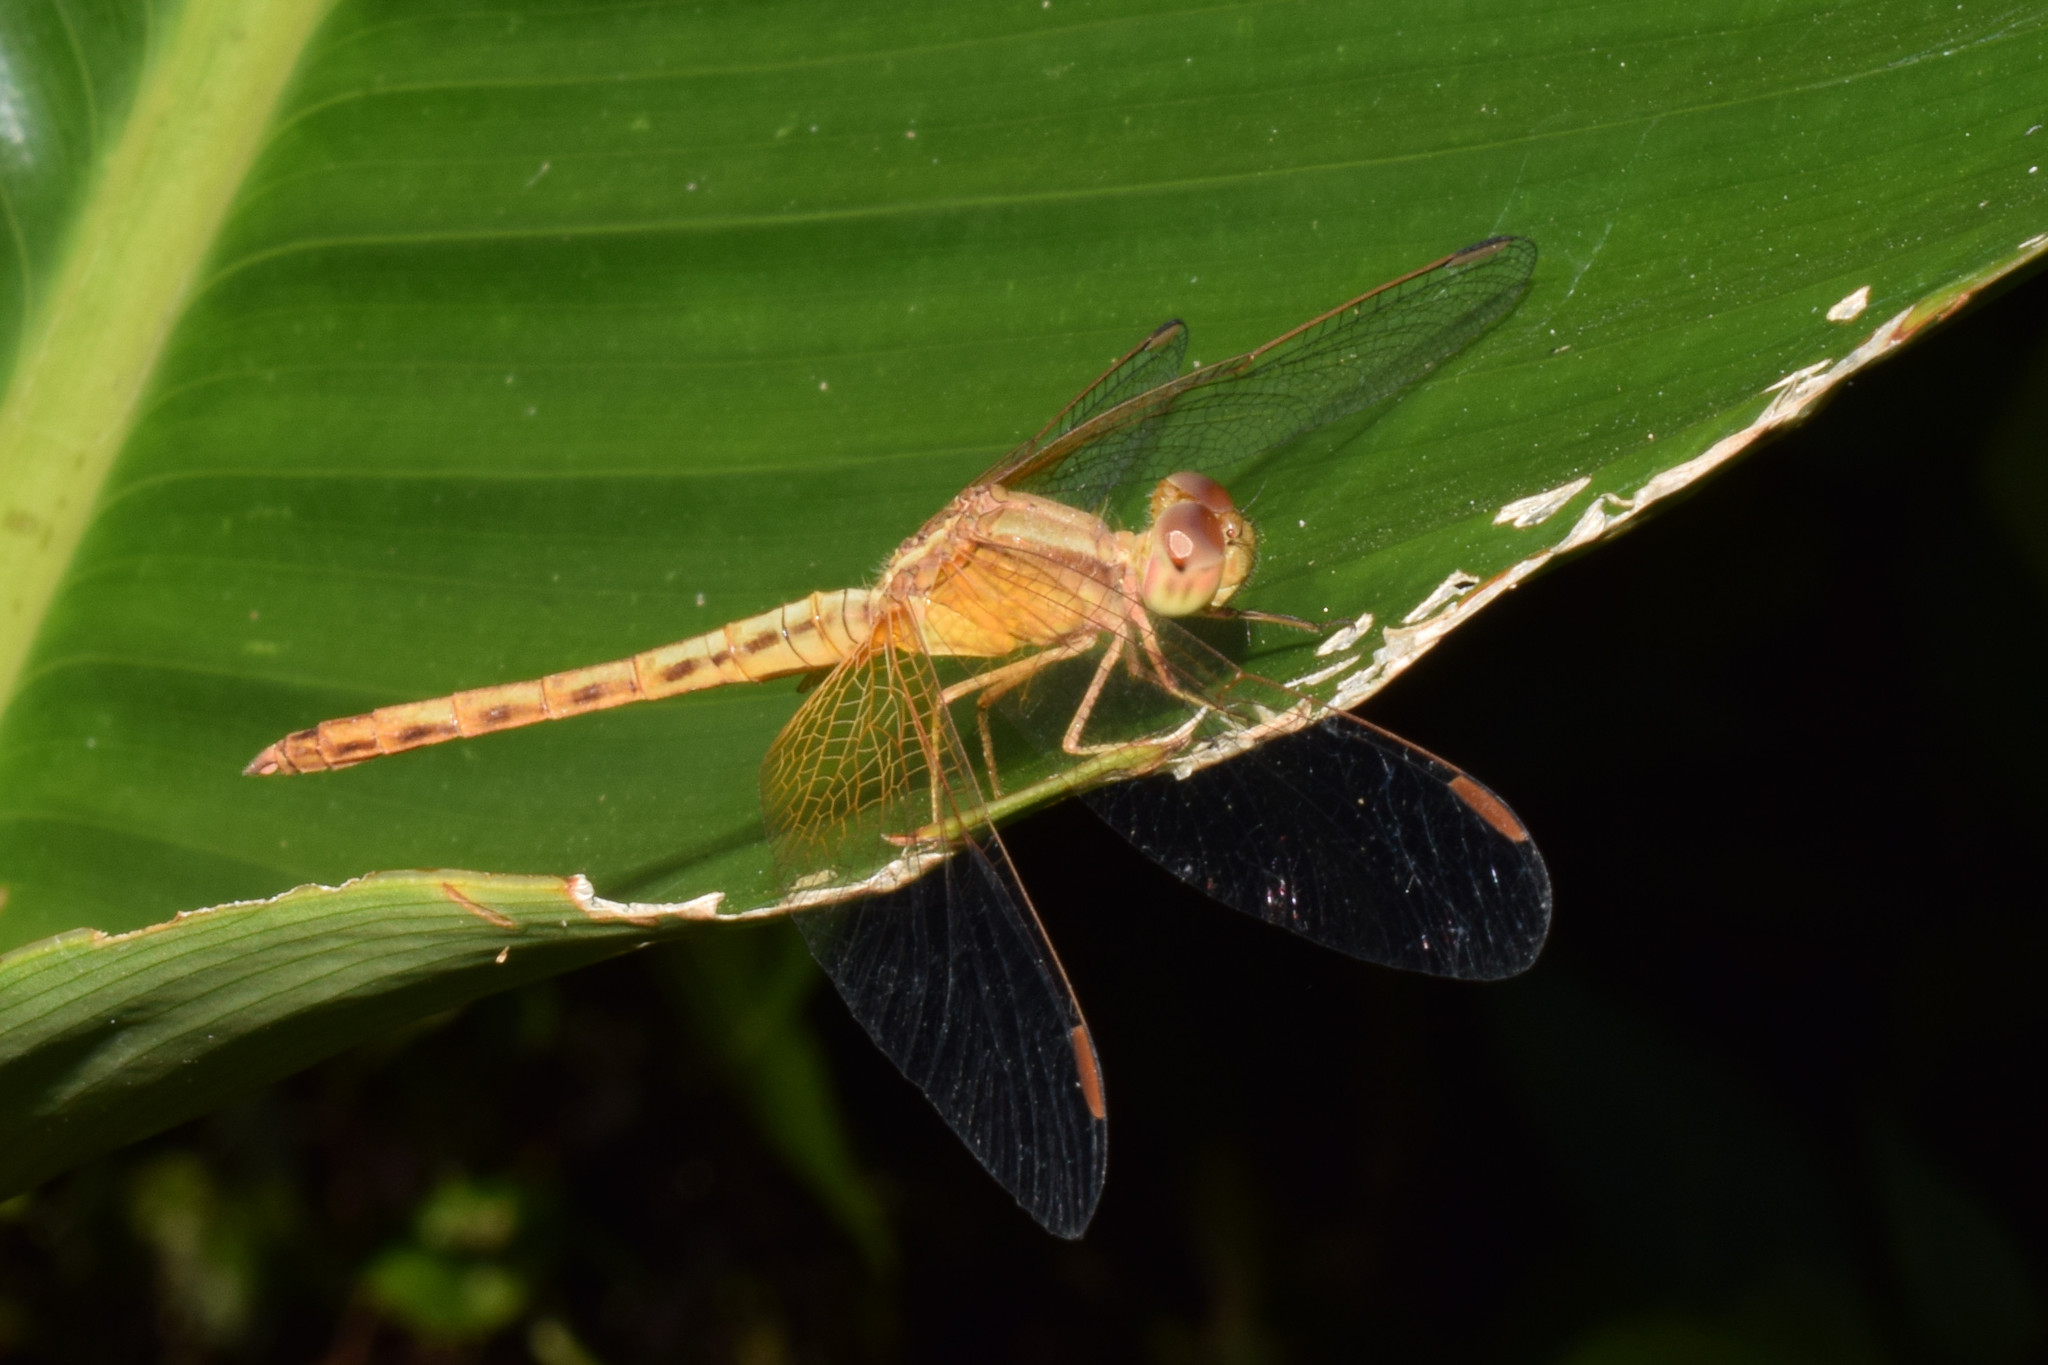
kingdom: Animalia
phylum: Arthropoda
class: Insecta
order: Odonata
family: Libellulidae
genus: Neurothemis
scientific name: Neurothemis intermedia
